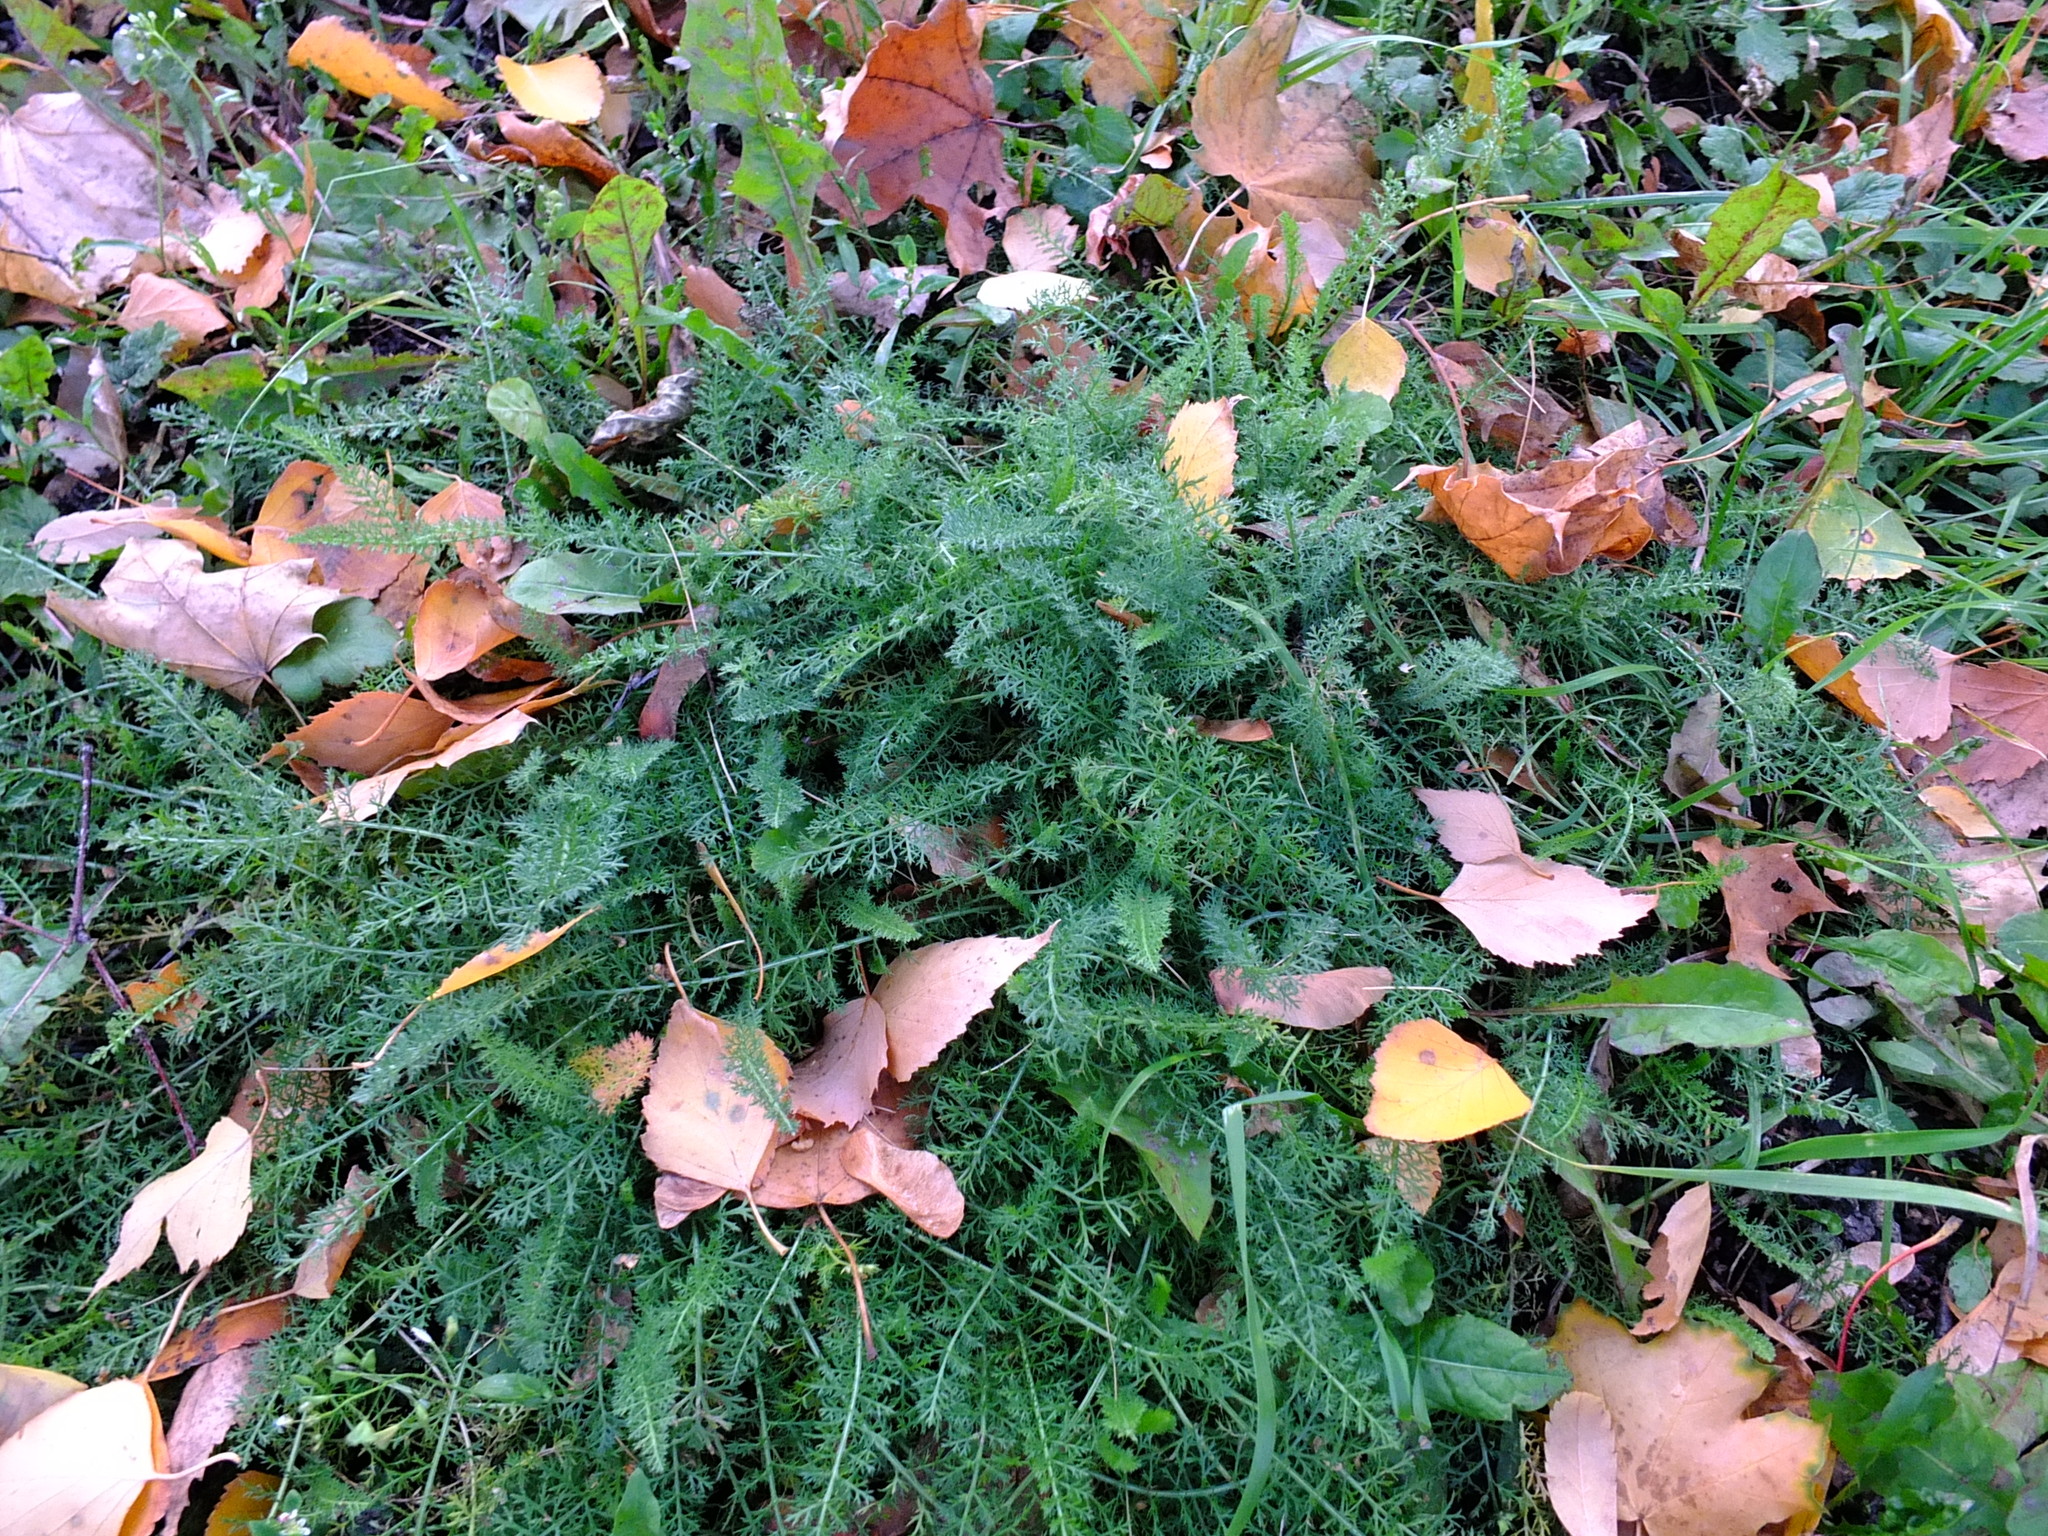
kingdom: Plantae
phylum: Tracheophyta
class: Magnoliopsida
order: Asterales
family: Asteraceae
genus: Achillea
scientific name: Achillea millefolium
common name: Yarrow
